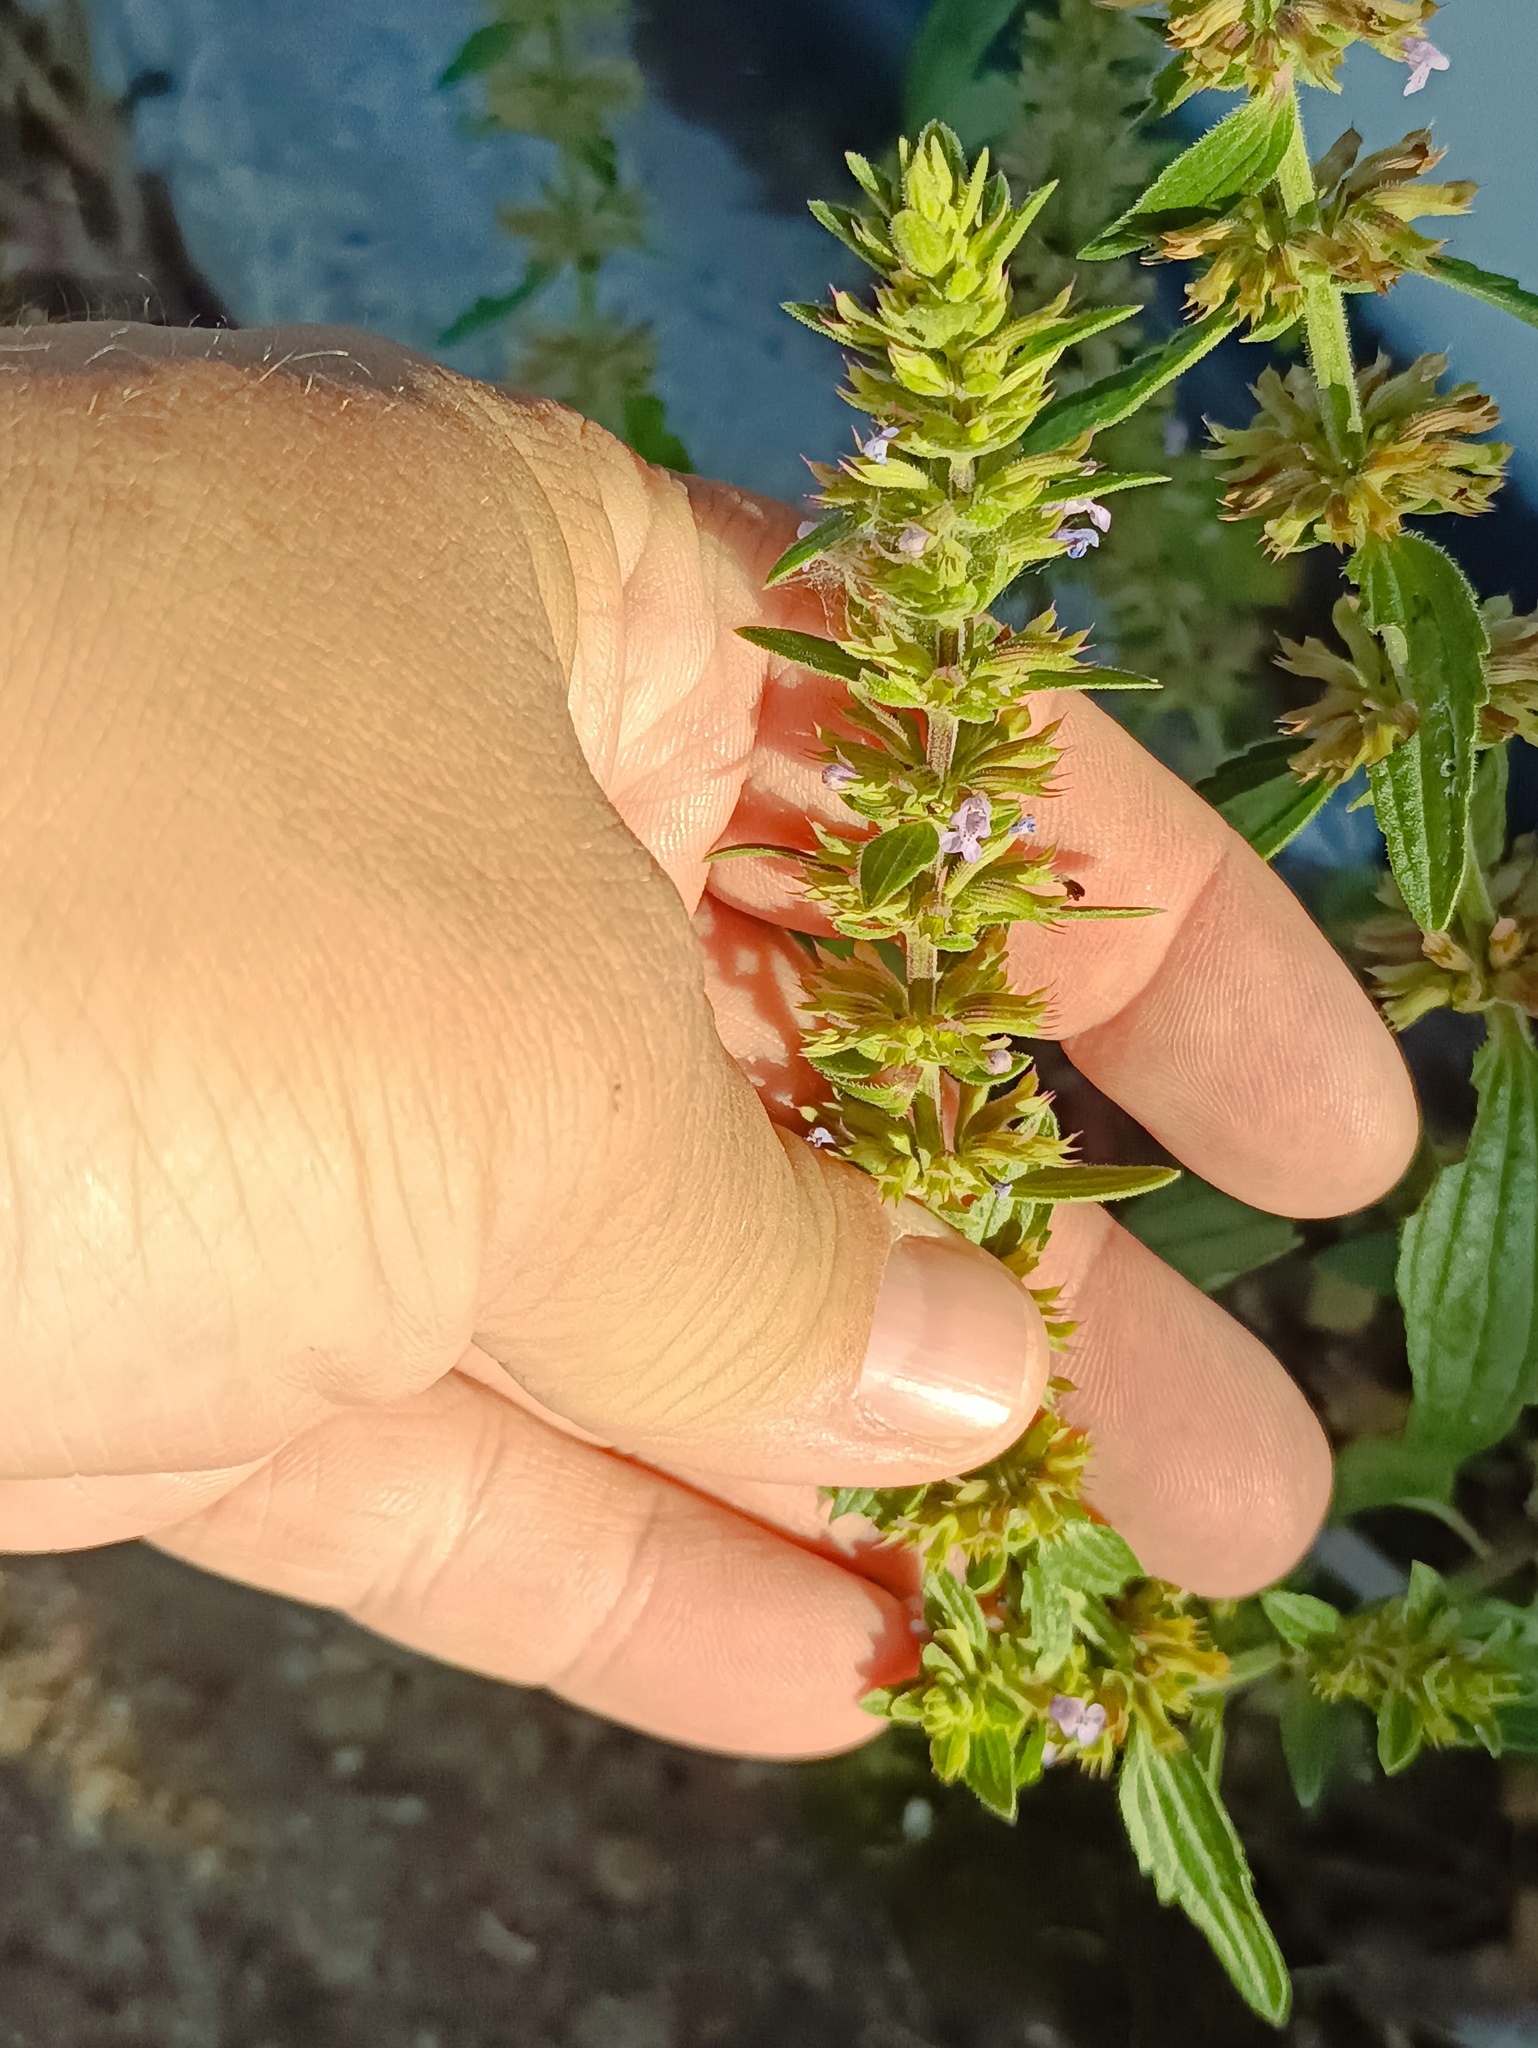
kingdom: Plantae
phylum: Tracheophyta
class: Magnoliopsida
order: Lamiales
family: Lamiaceae
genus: Dracocephalum
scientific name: Dracocephalum thymiflorum
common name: Thymeleaf dragonhead
